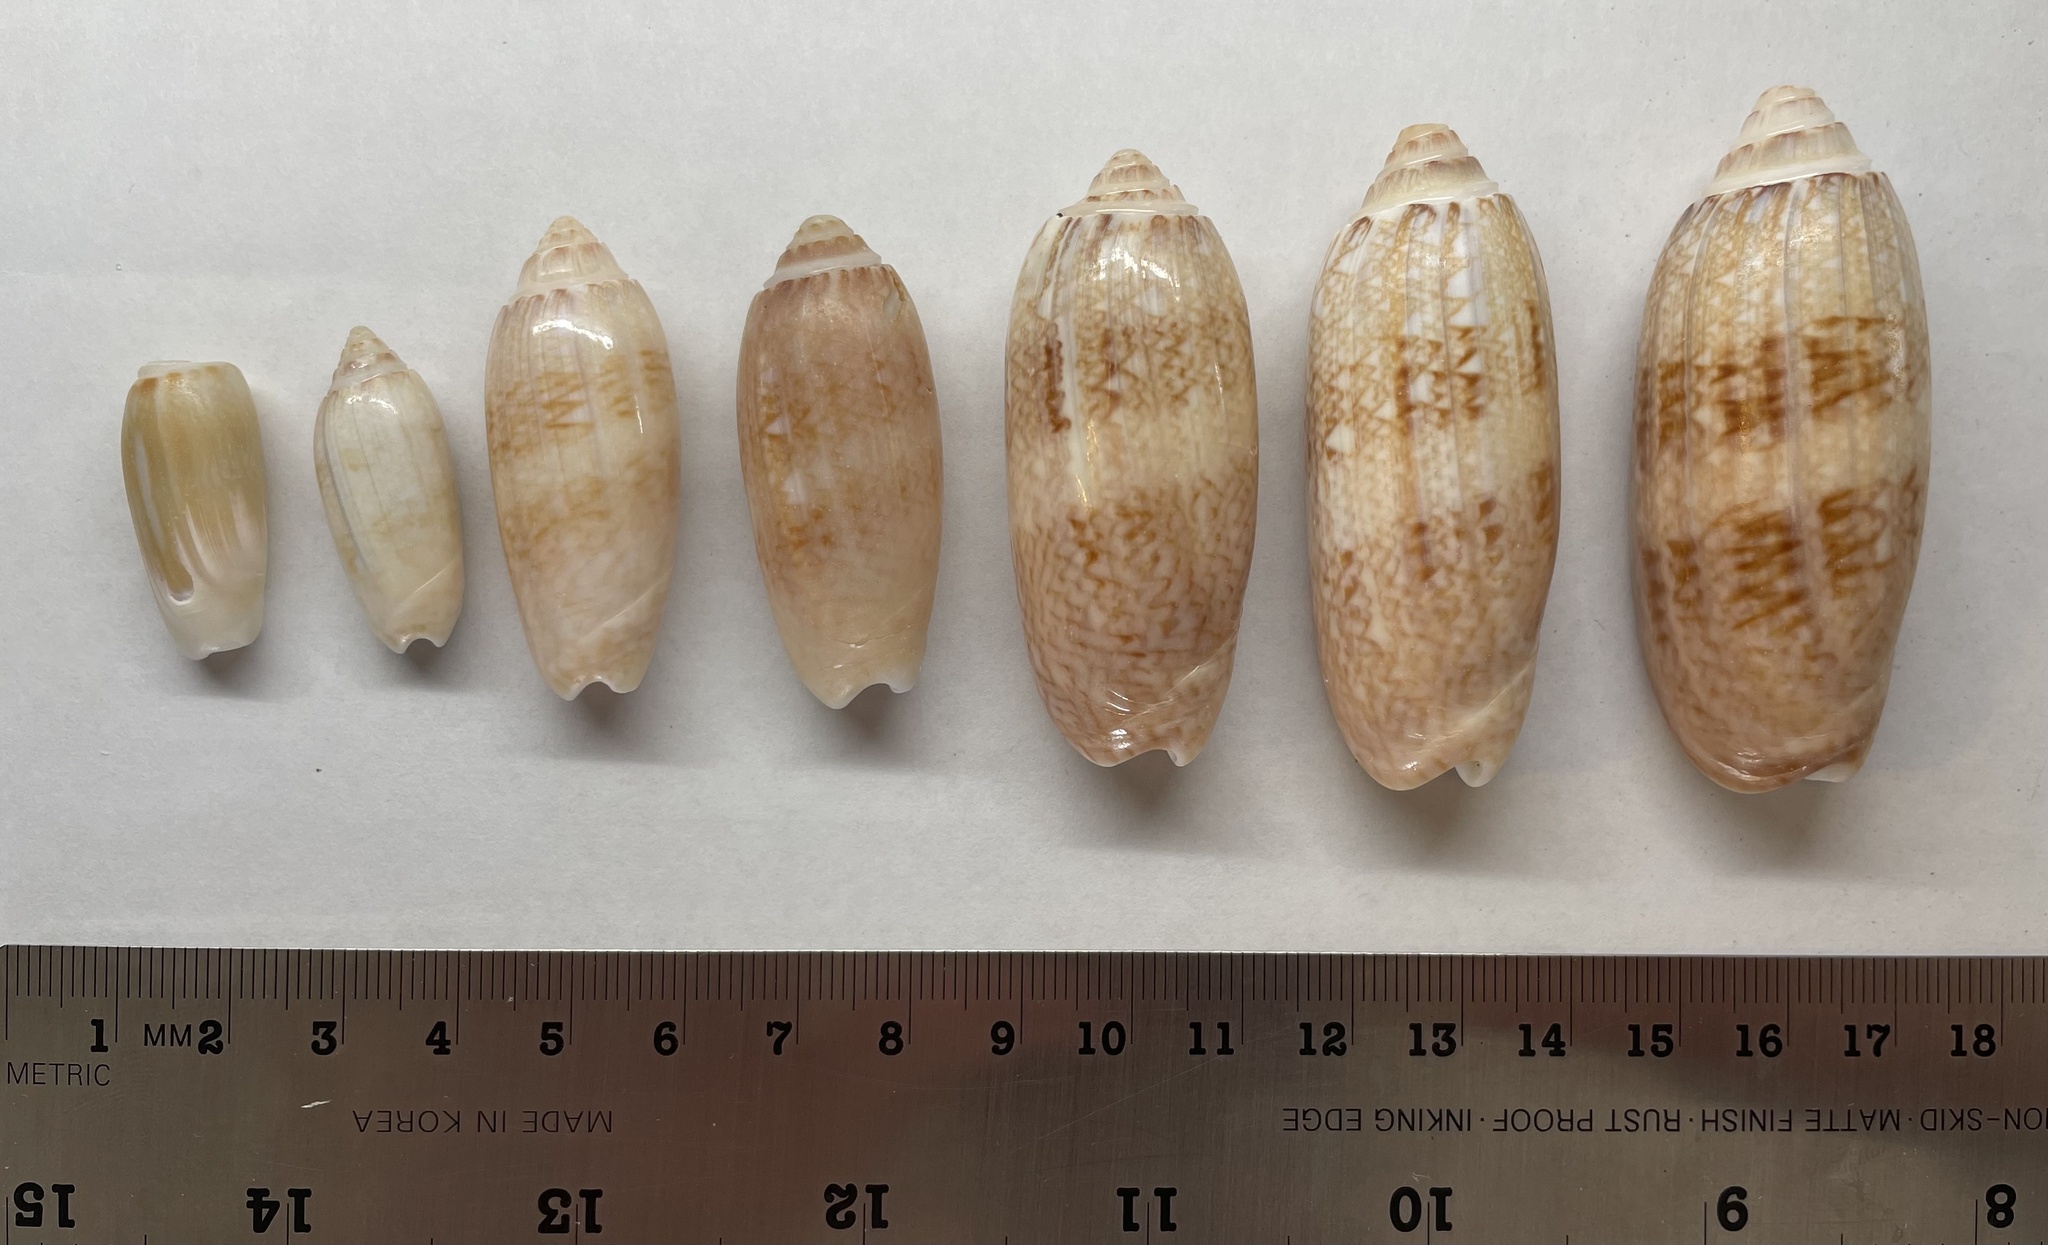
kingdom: Animalia
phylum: Mollusca
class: Gastropoda
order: Neogastropoda
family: Olividae
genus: Oliva
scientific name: Oliva sayana
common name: Lettered olive
